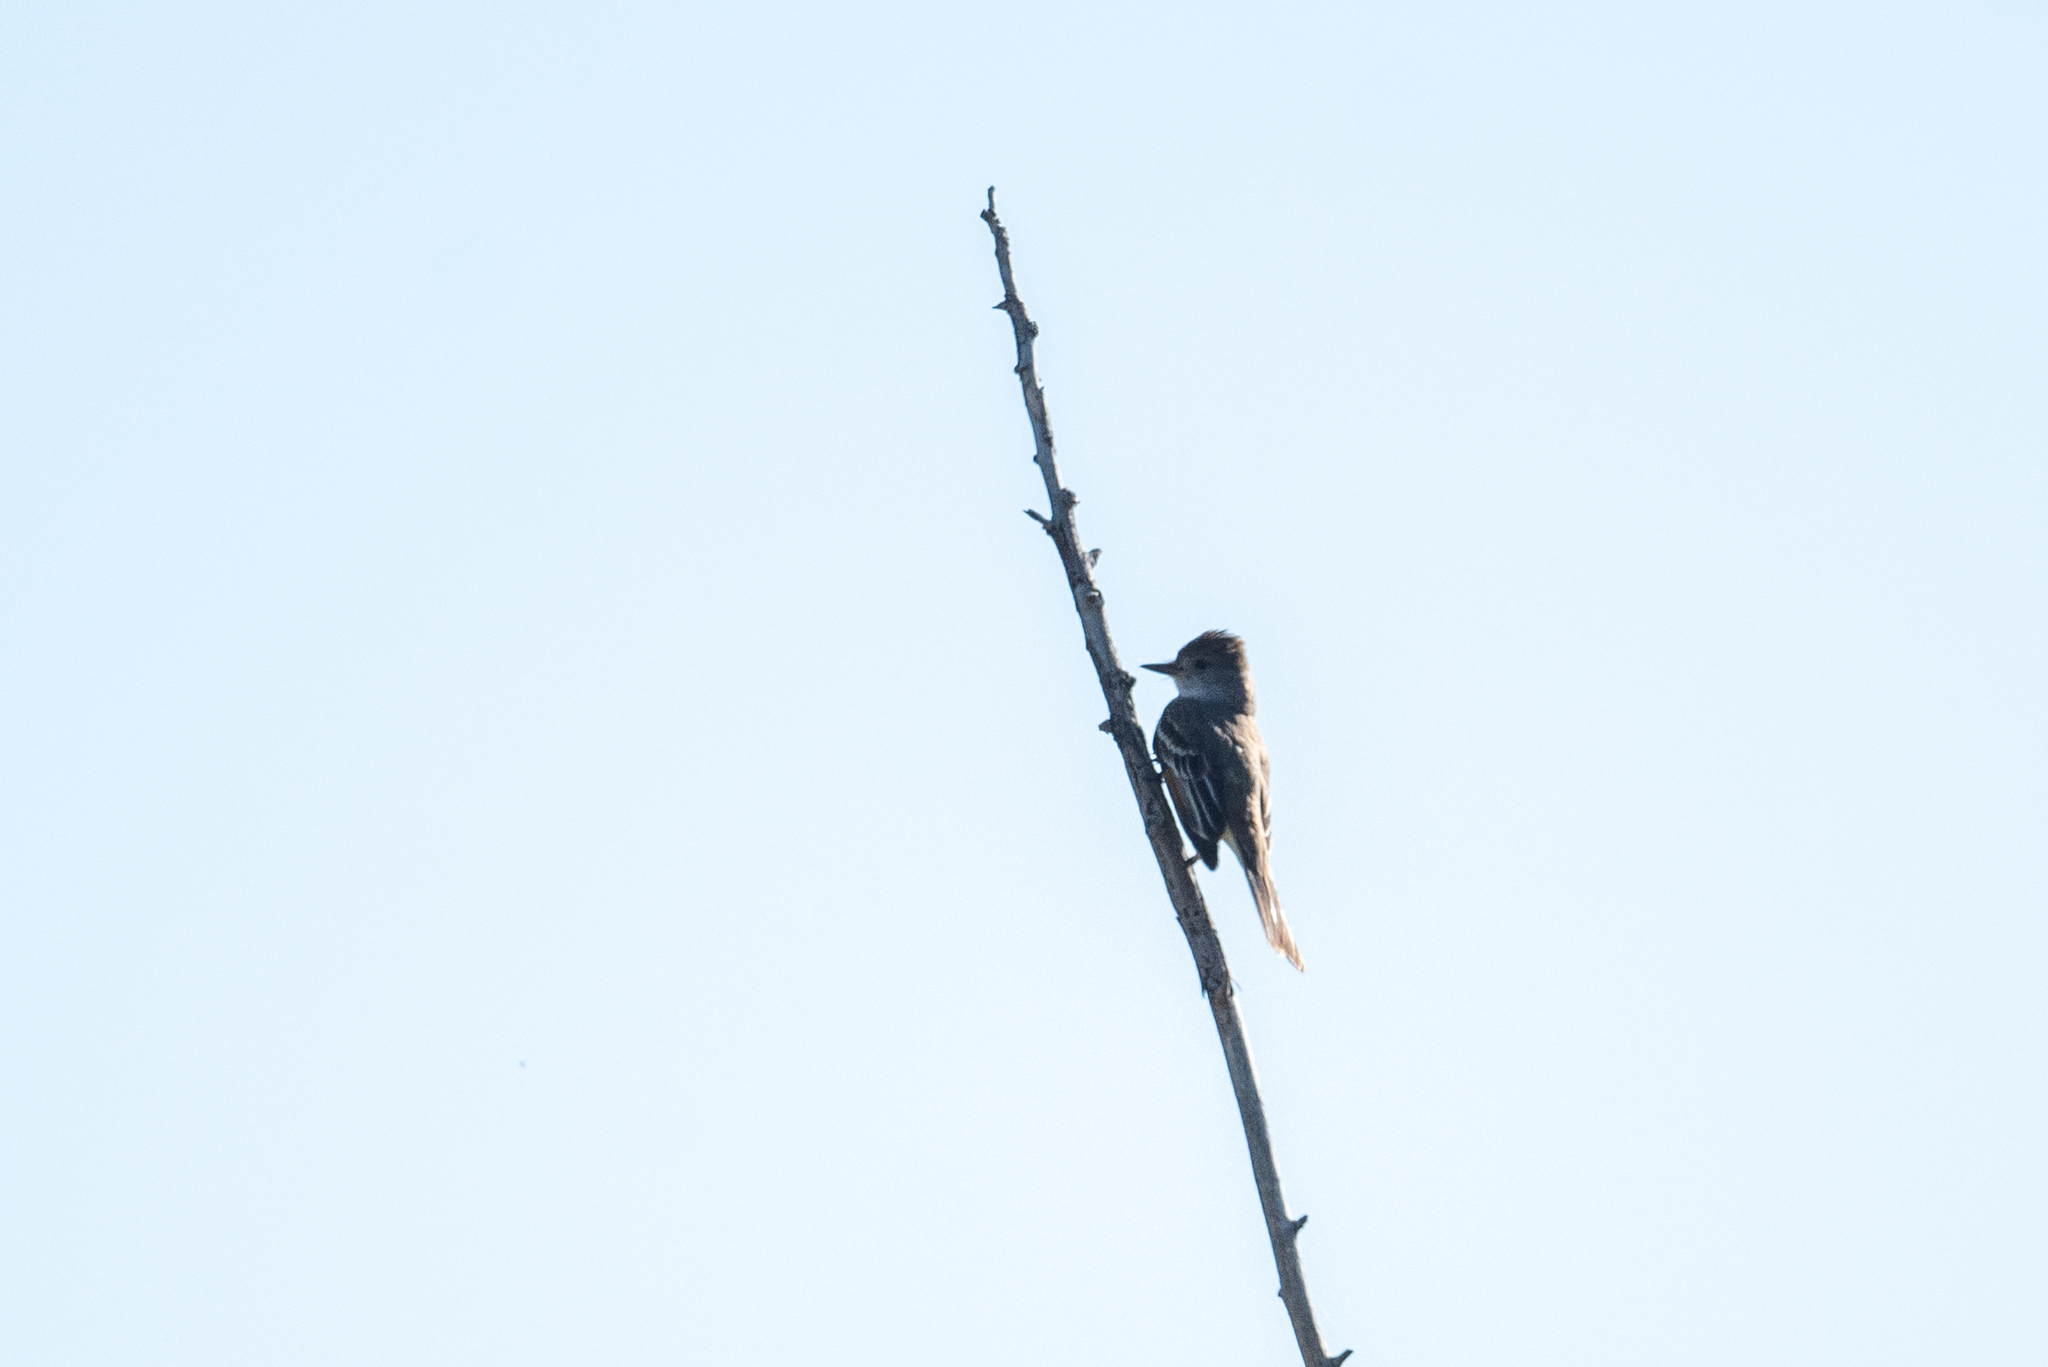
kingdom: Animalia
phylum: Chordata
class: Aves
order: Passeriformes
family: Tyrannidae
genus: Myiarchus
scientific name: Myiarchus cinerascens
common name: Ash-throated flycatcher
